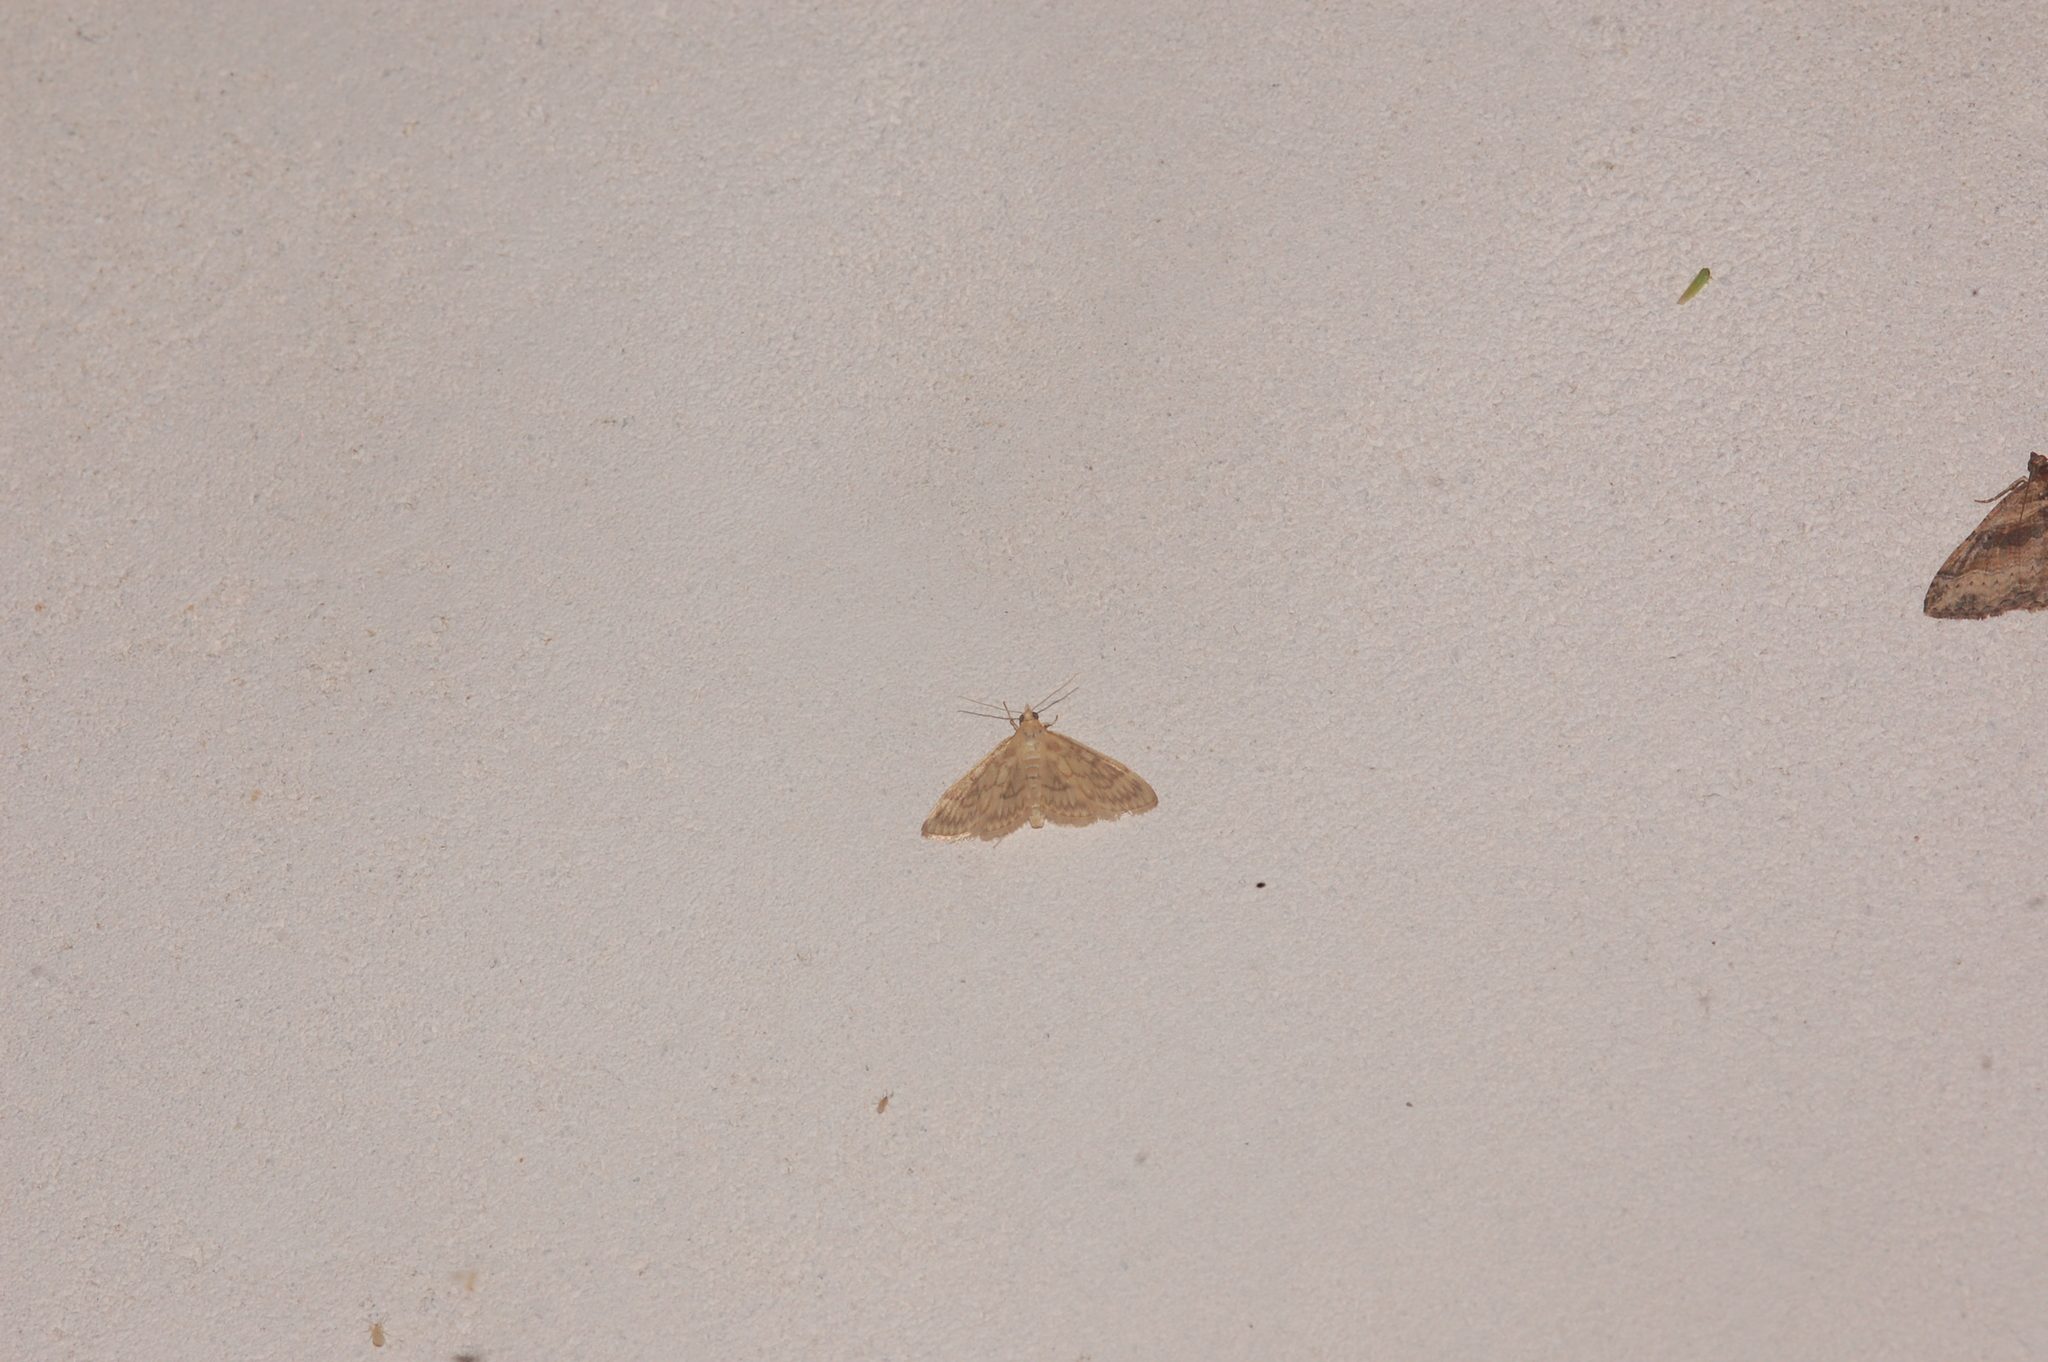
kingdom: Animalia
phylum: Arthropoda
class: Insecta
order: Lepidoptera
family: Crambidae
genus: Crocidophora
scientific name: Crocidophora serratissimalis
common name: Saw-toothed crocidophora moth
